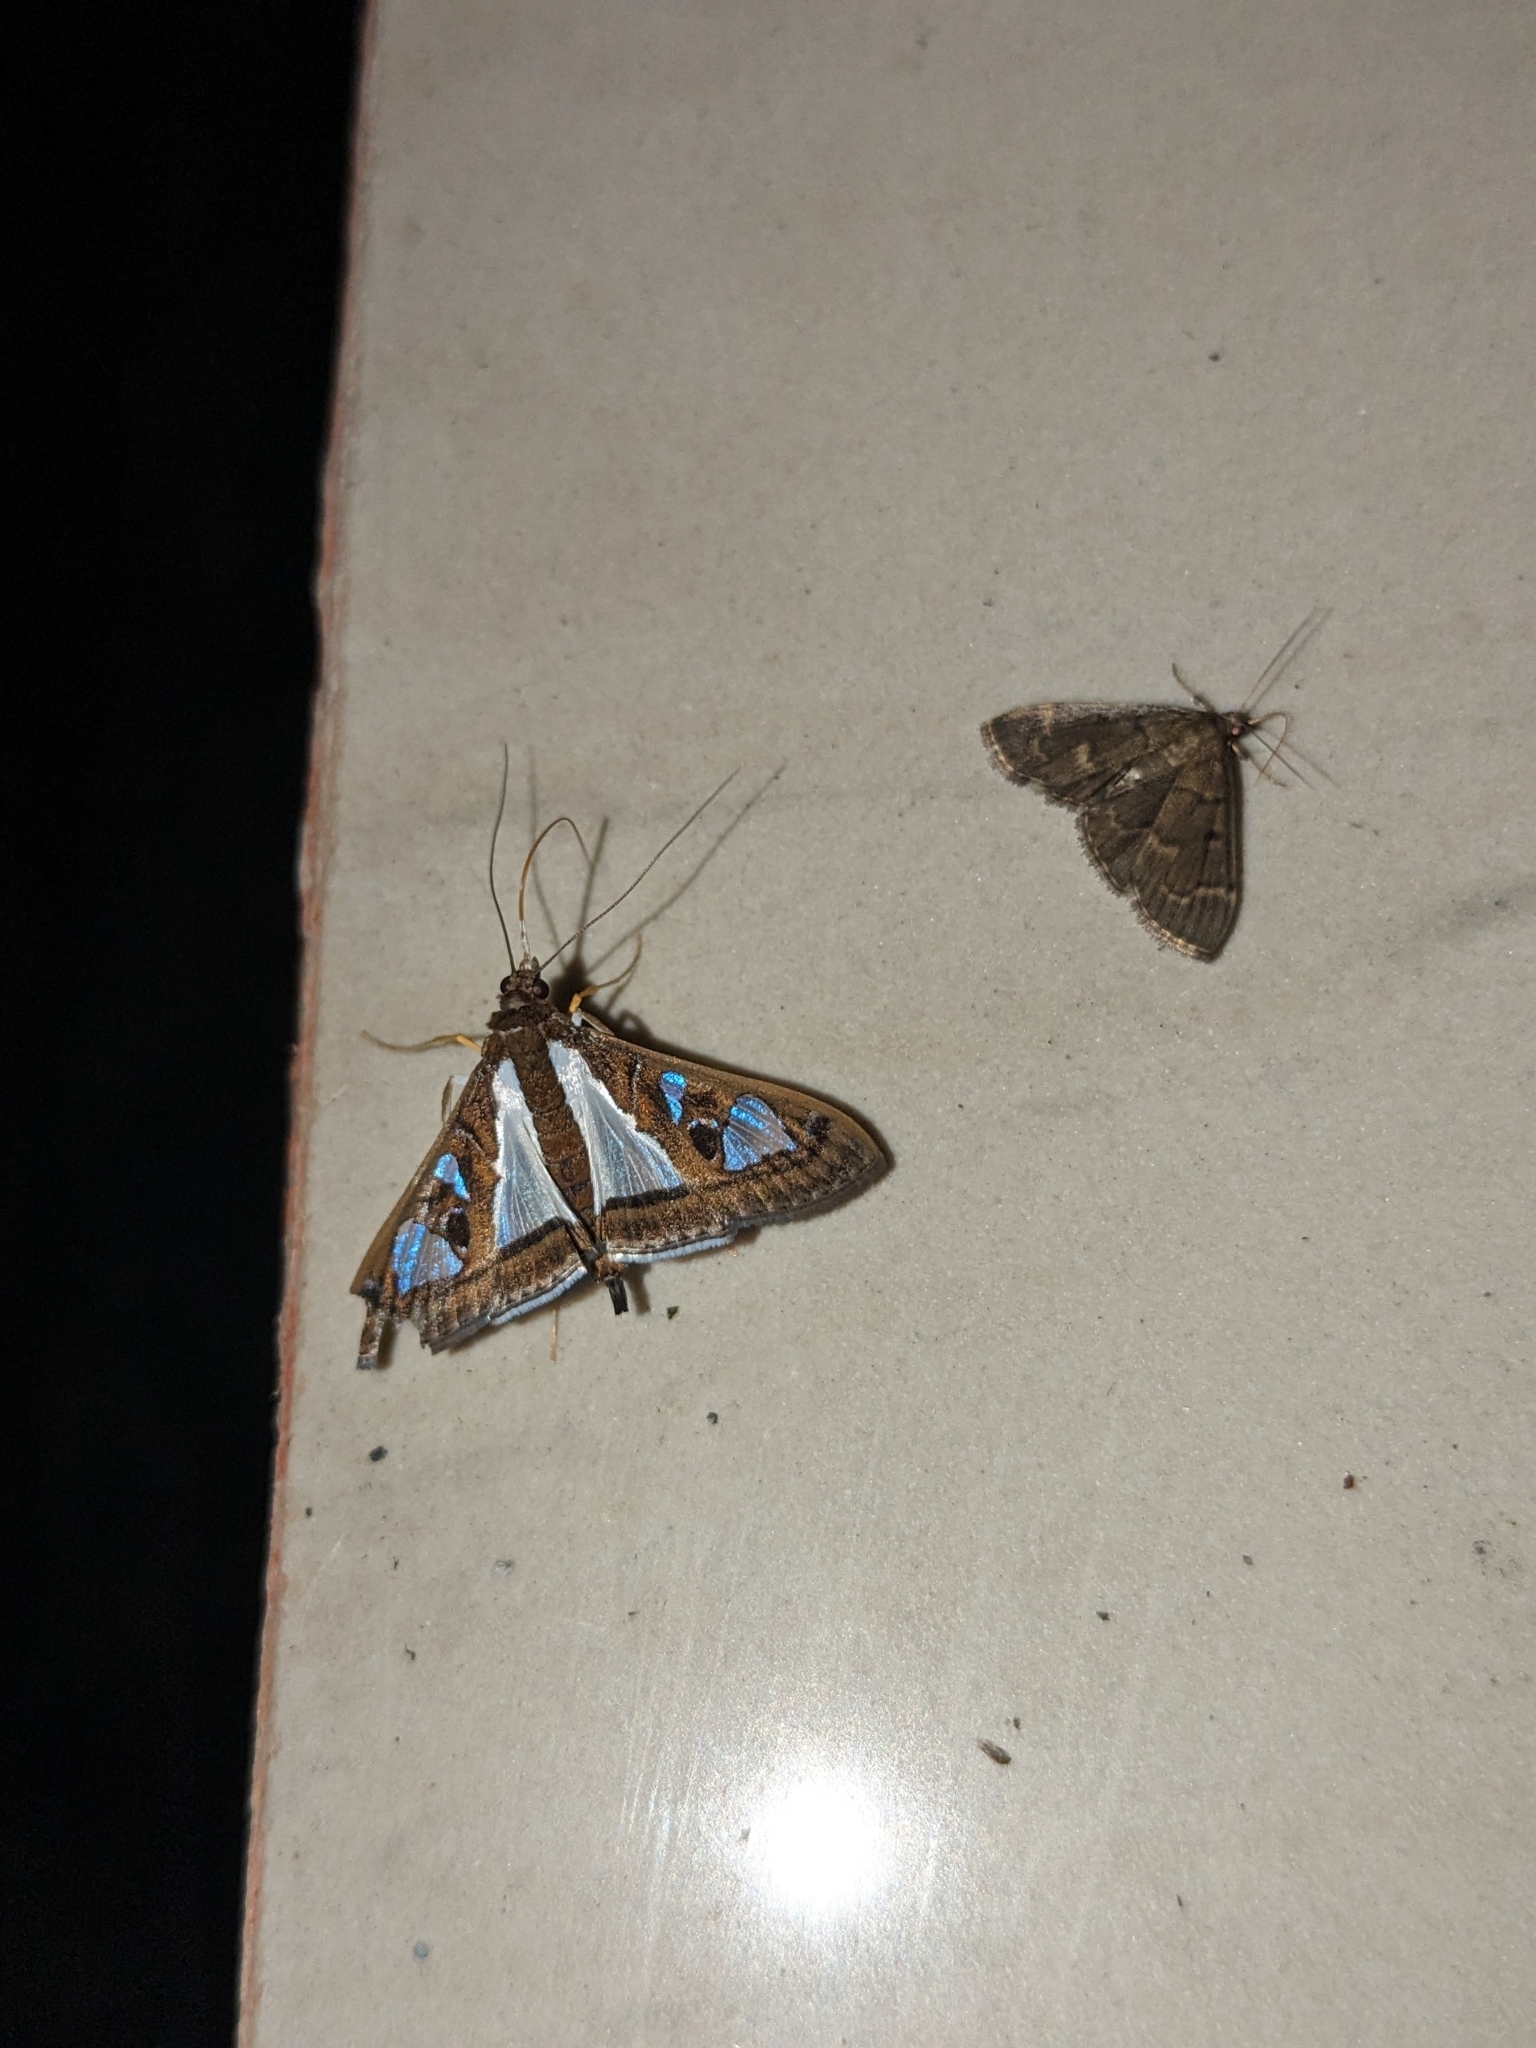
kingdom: Animalia
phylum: Arthropoda
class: Insecta
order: Lepidoptera
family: Crambidae
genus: Glyphodes
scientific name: Glyphodes bivitralis
